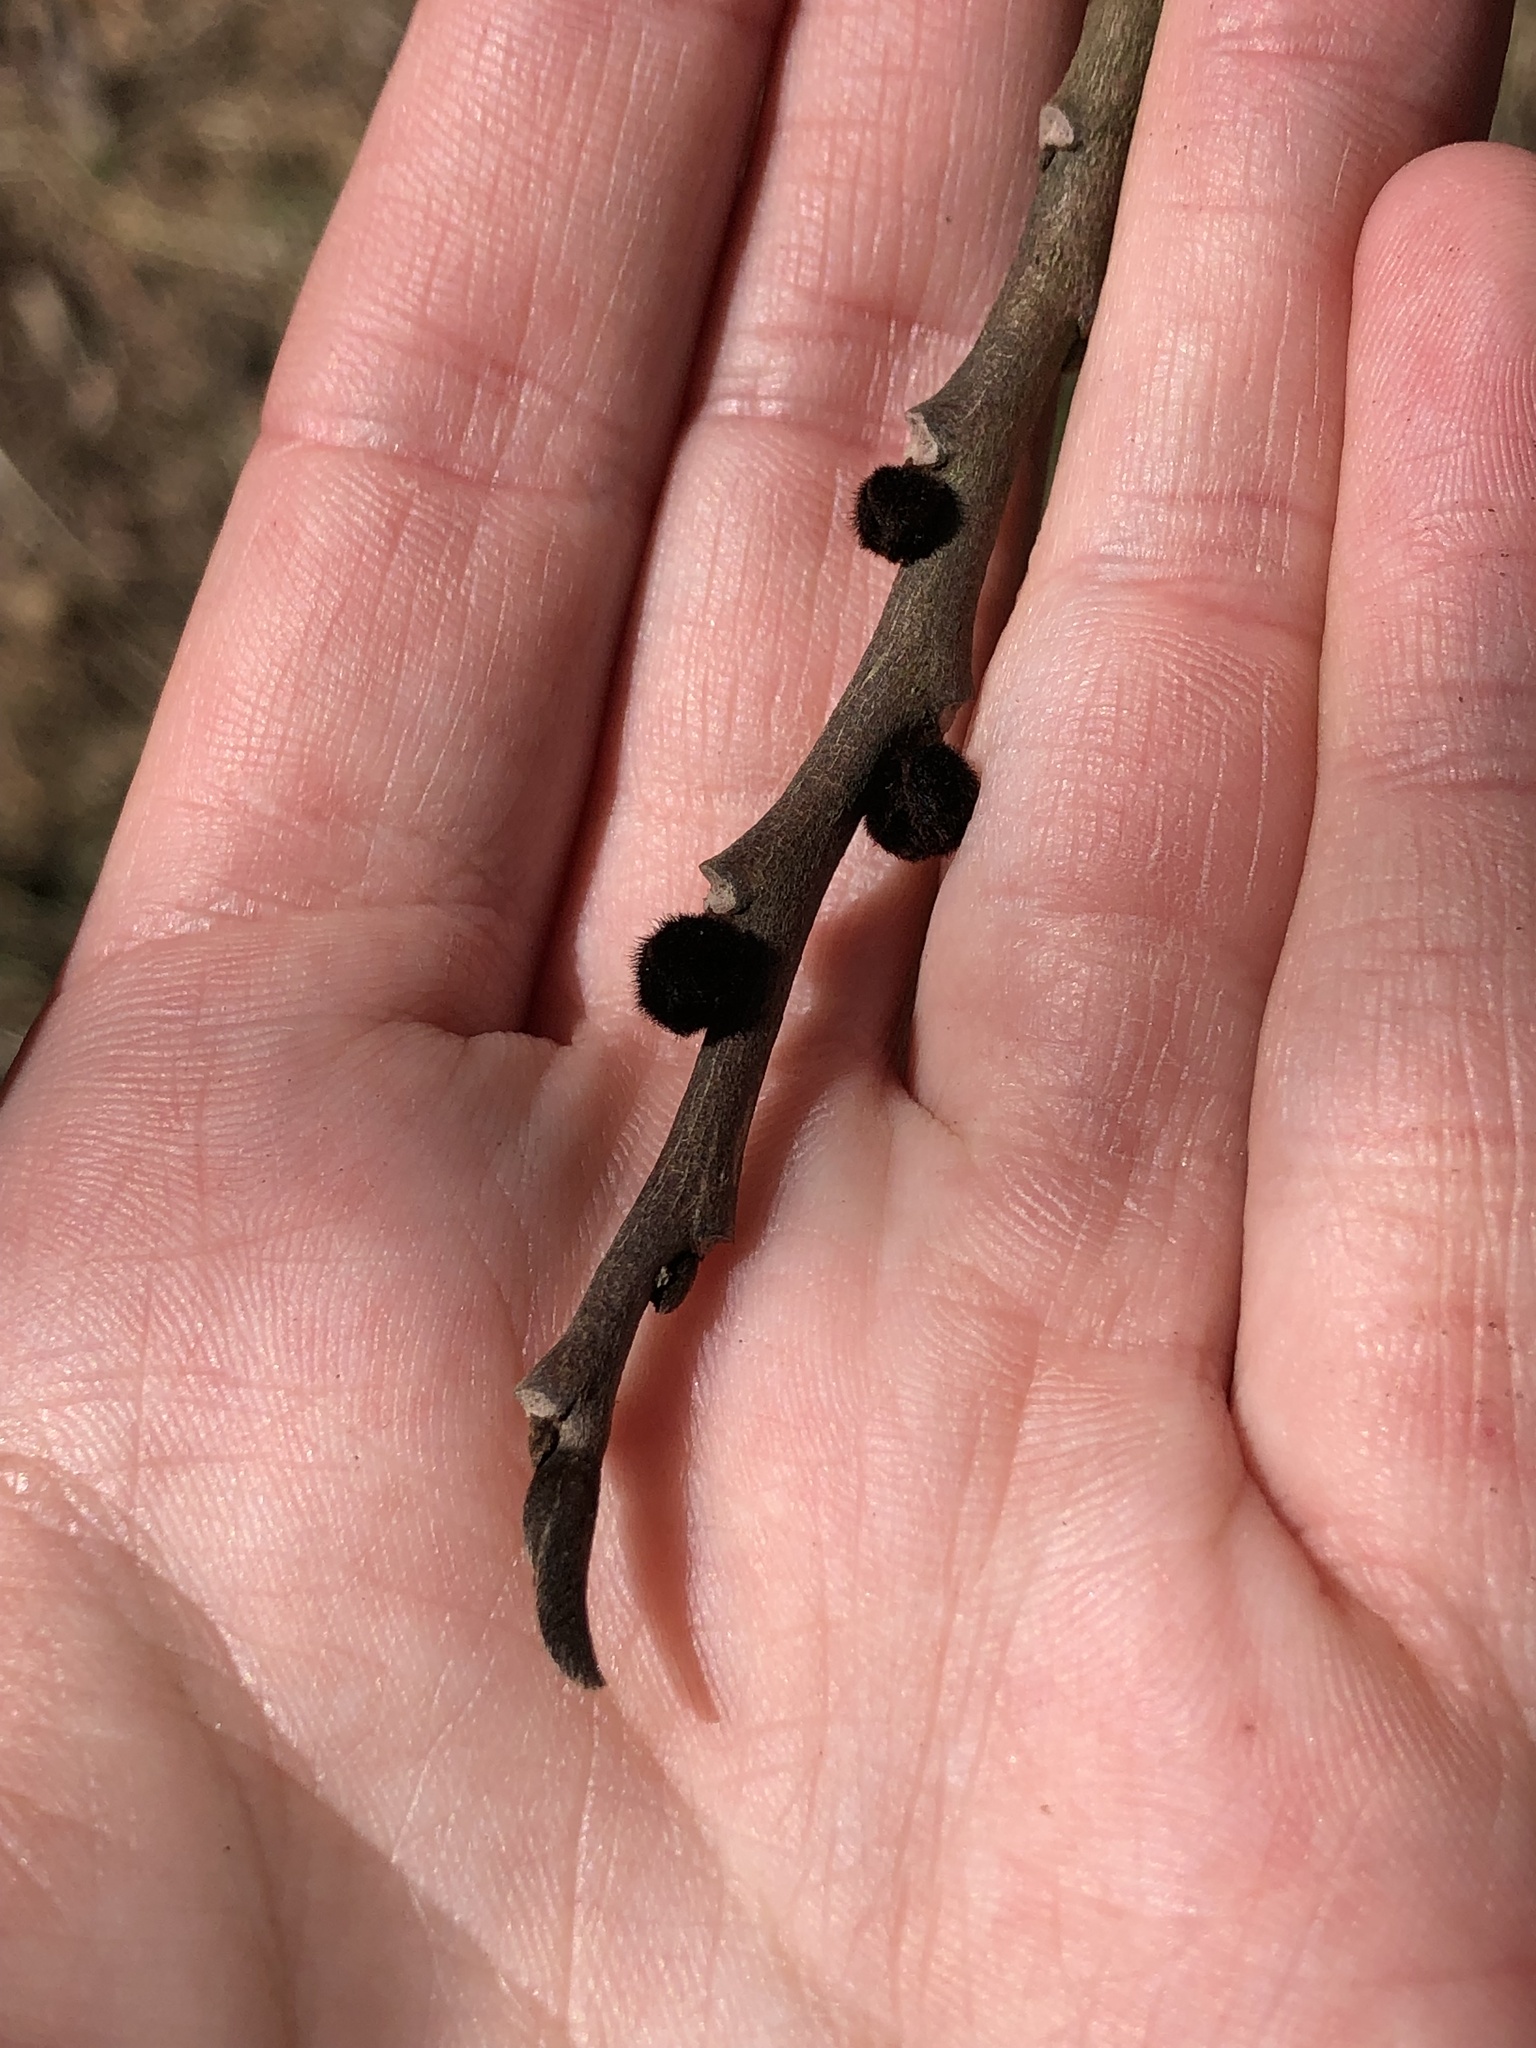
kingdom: Plantae
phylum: Tracheophyta
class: Magnoliopsida
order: Magnoliales
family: Annonaceae
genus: Asimina
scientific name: Asimina triloba
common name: Dog-banana
